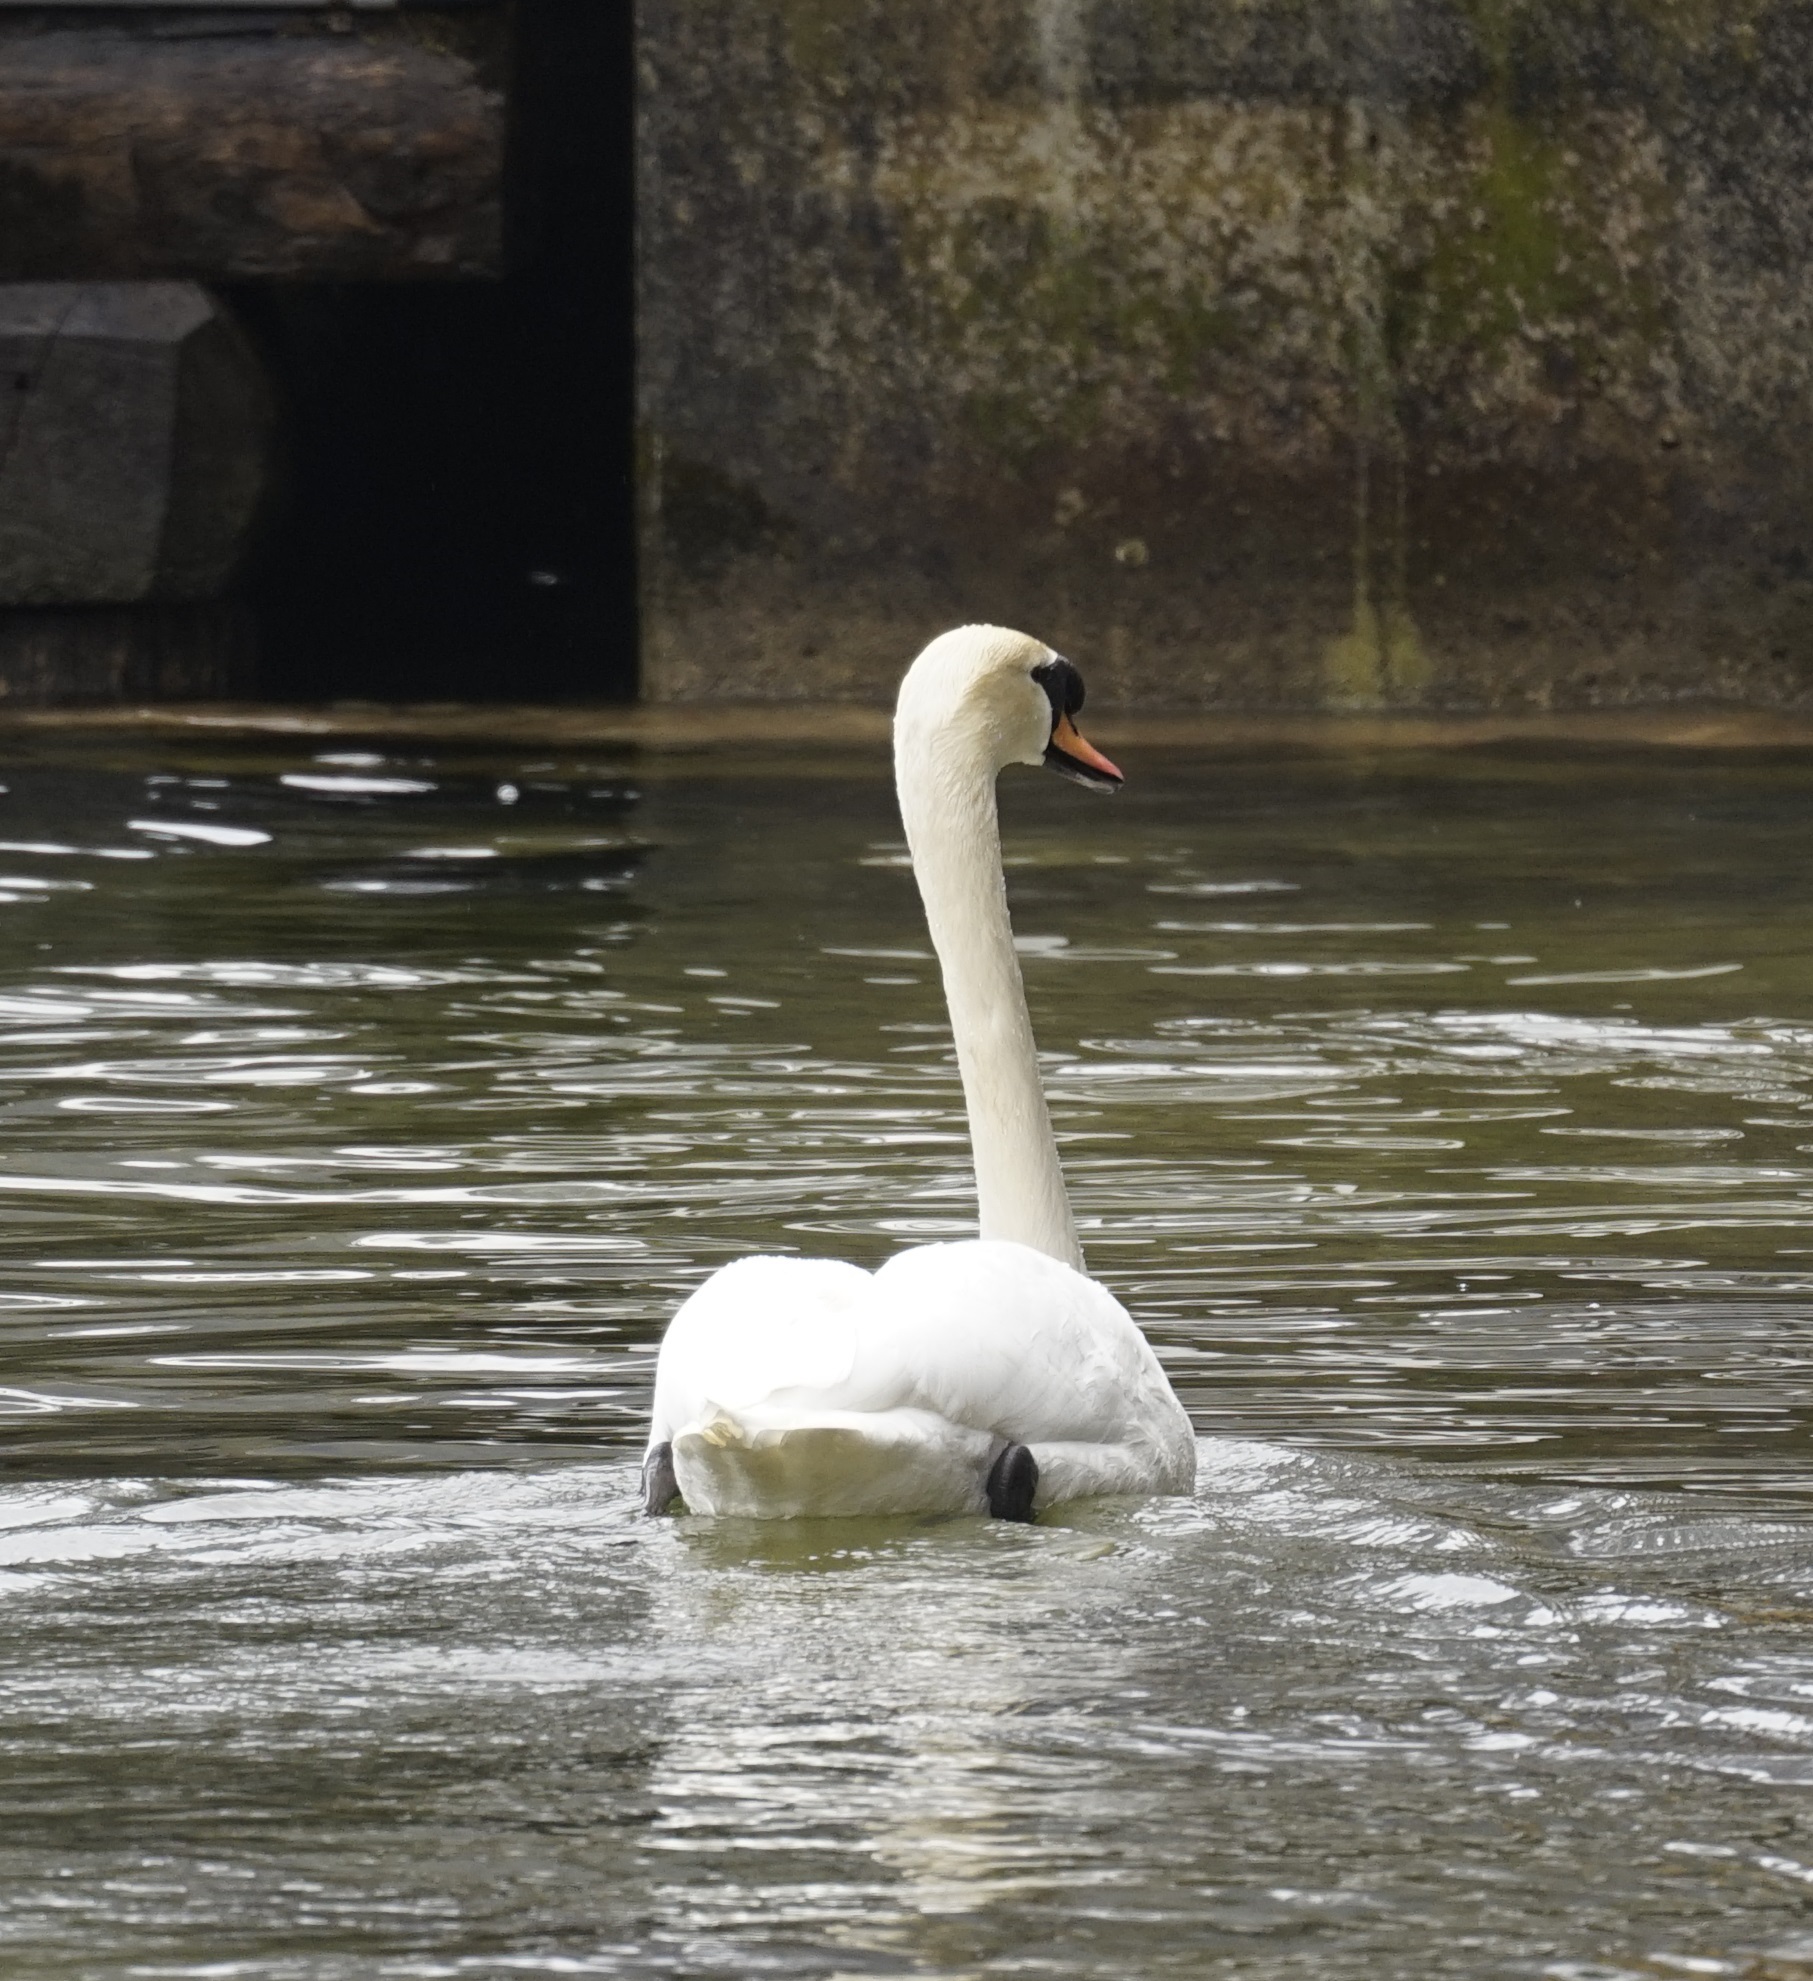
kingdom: Animalia
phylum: Chordata
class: Aves
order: Anseriformes
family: Anatidae
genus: Cygnus
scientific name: Cygnus olor
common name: Mute swan
